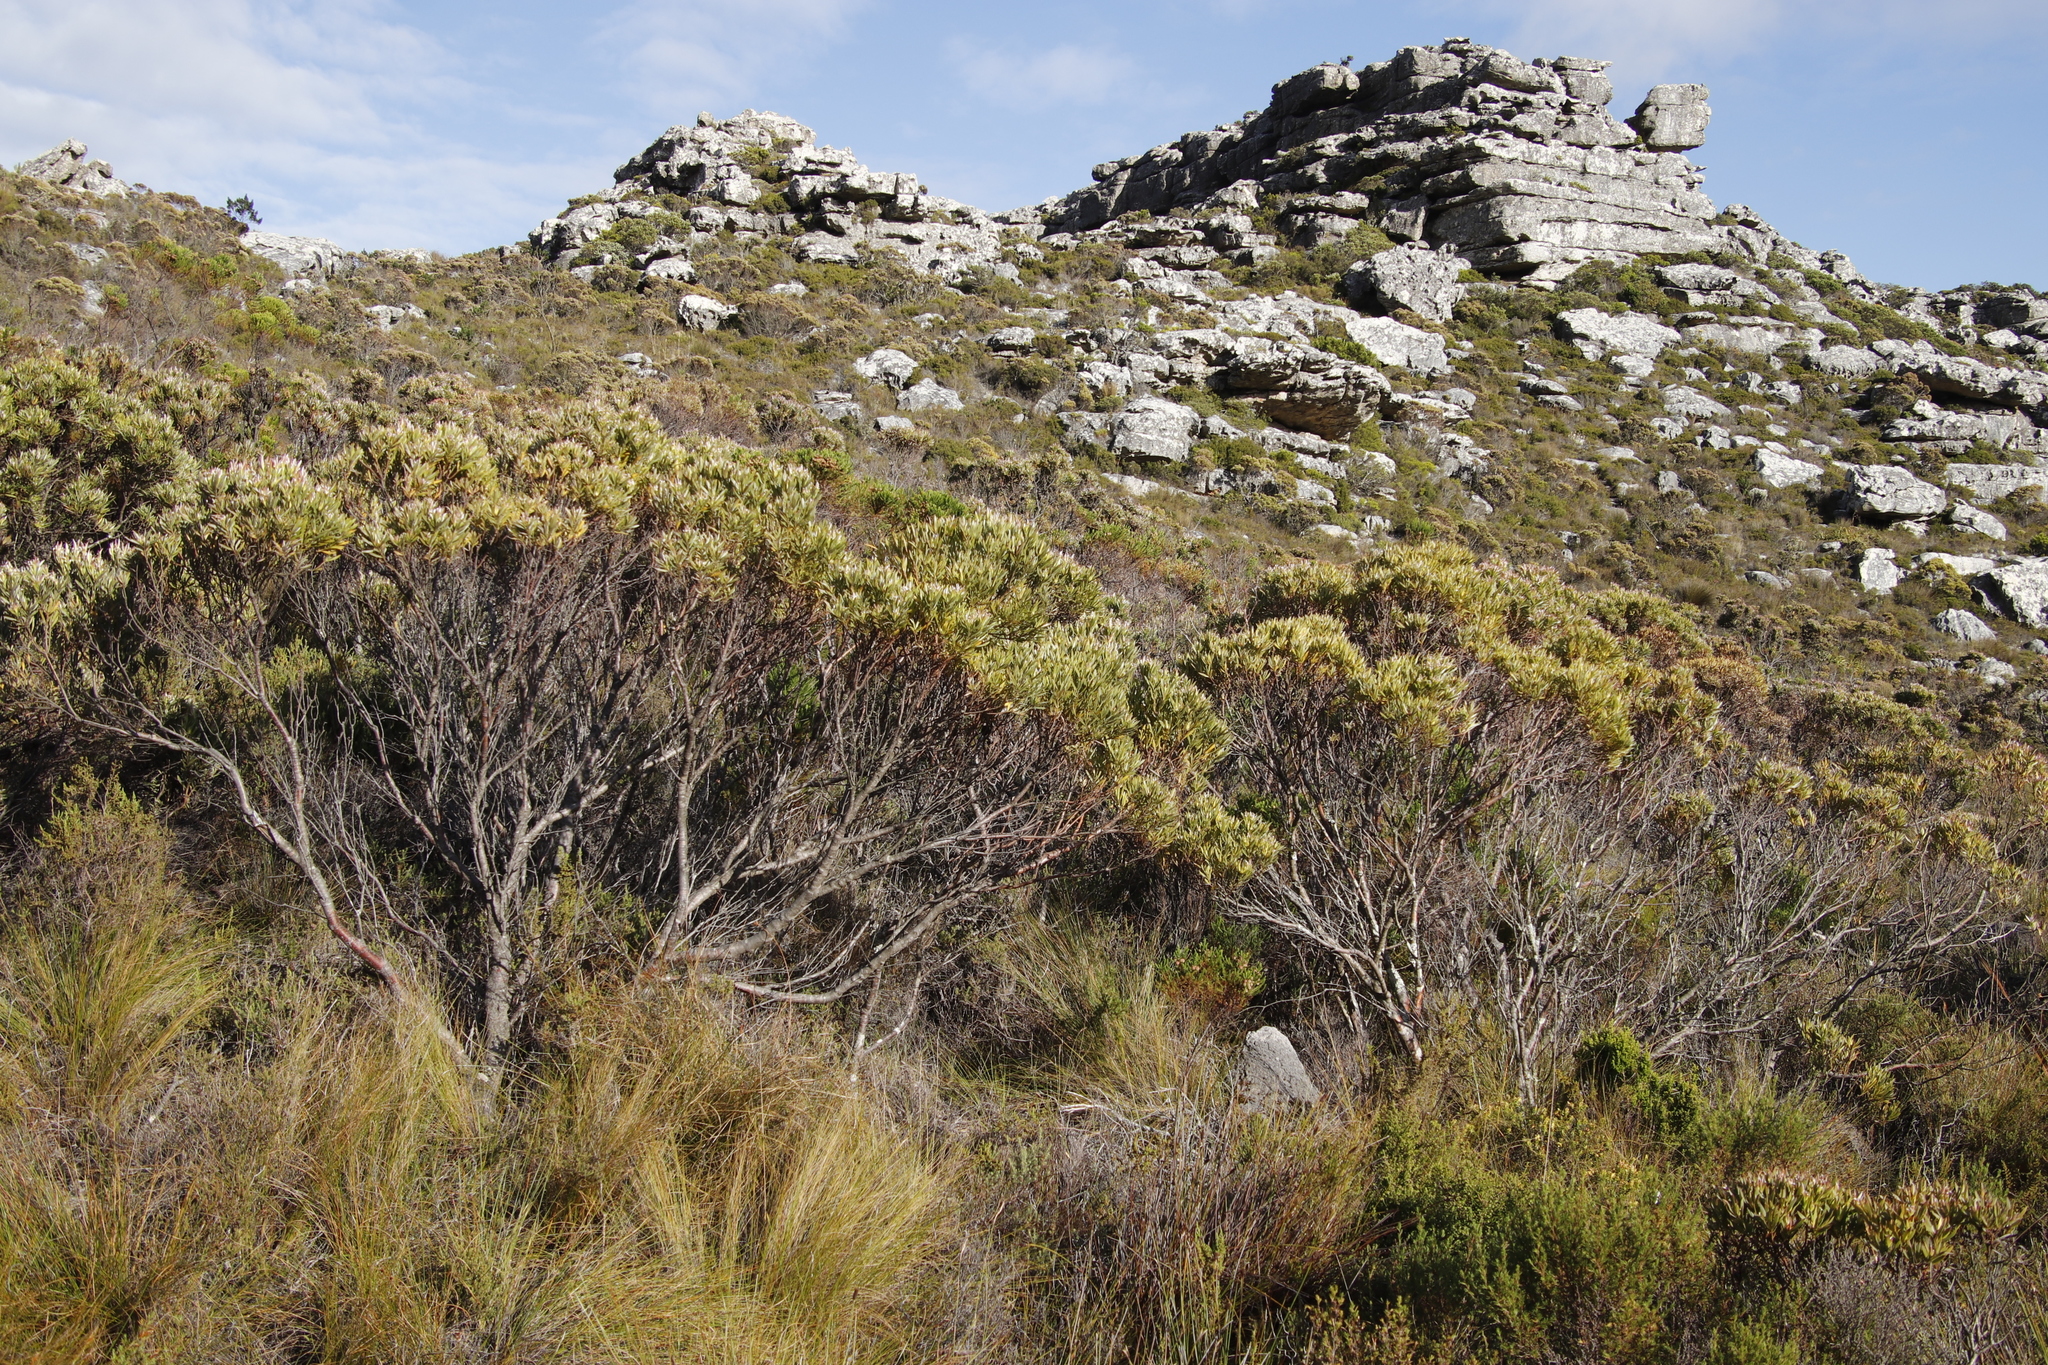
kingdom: Plantae
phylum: Tracheophyta
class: Magnoliopsida
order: Proteales
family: Proteaceae
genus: Leucadendron
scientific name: Leucadendron xanthoconus
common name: Sickle-leaf conebush
